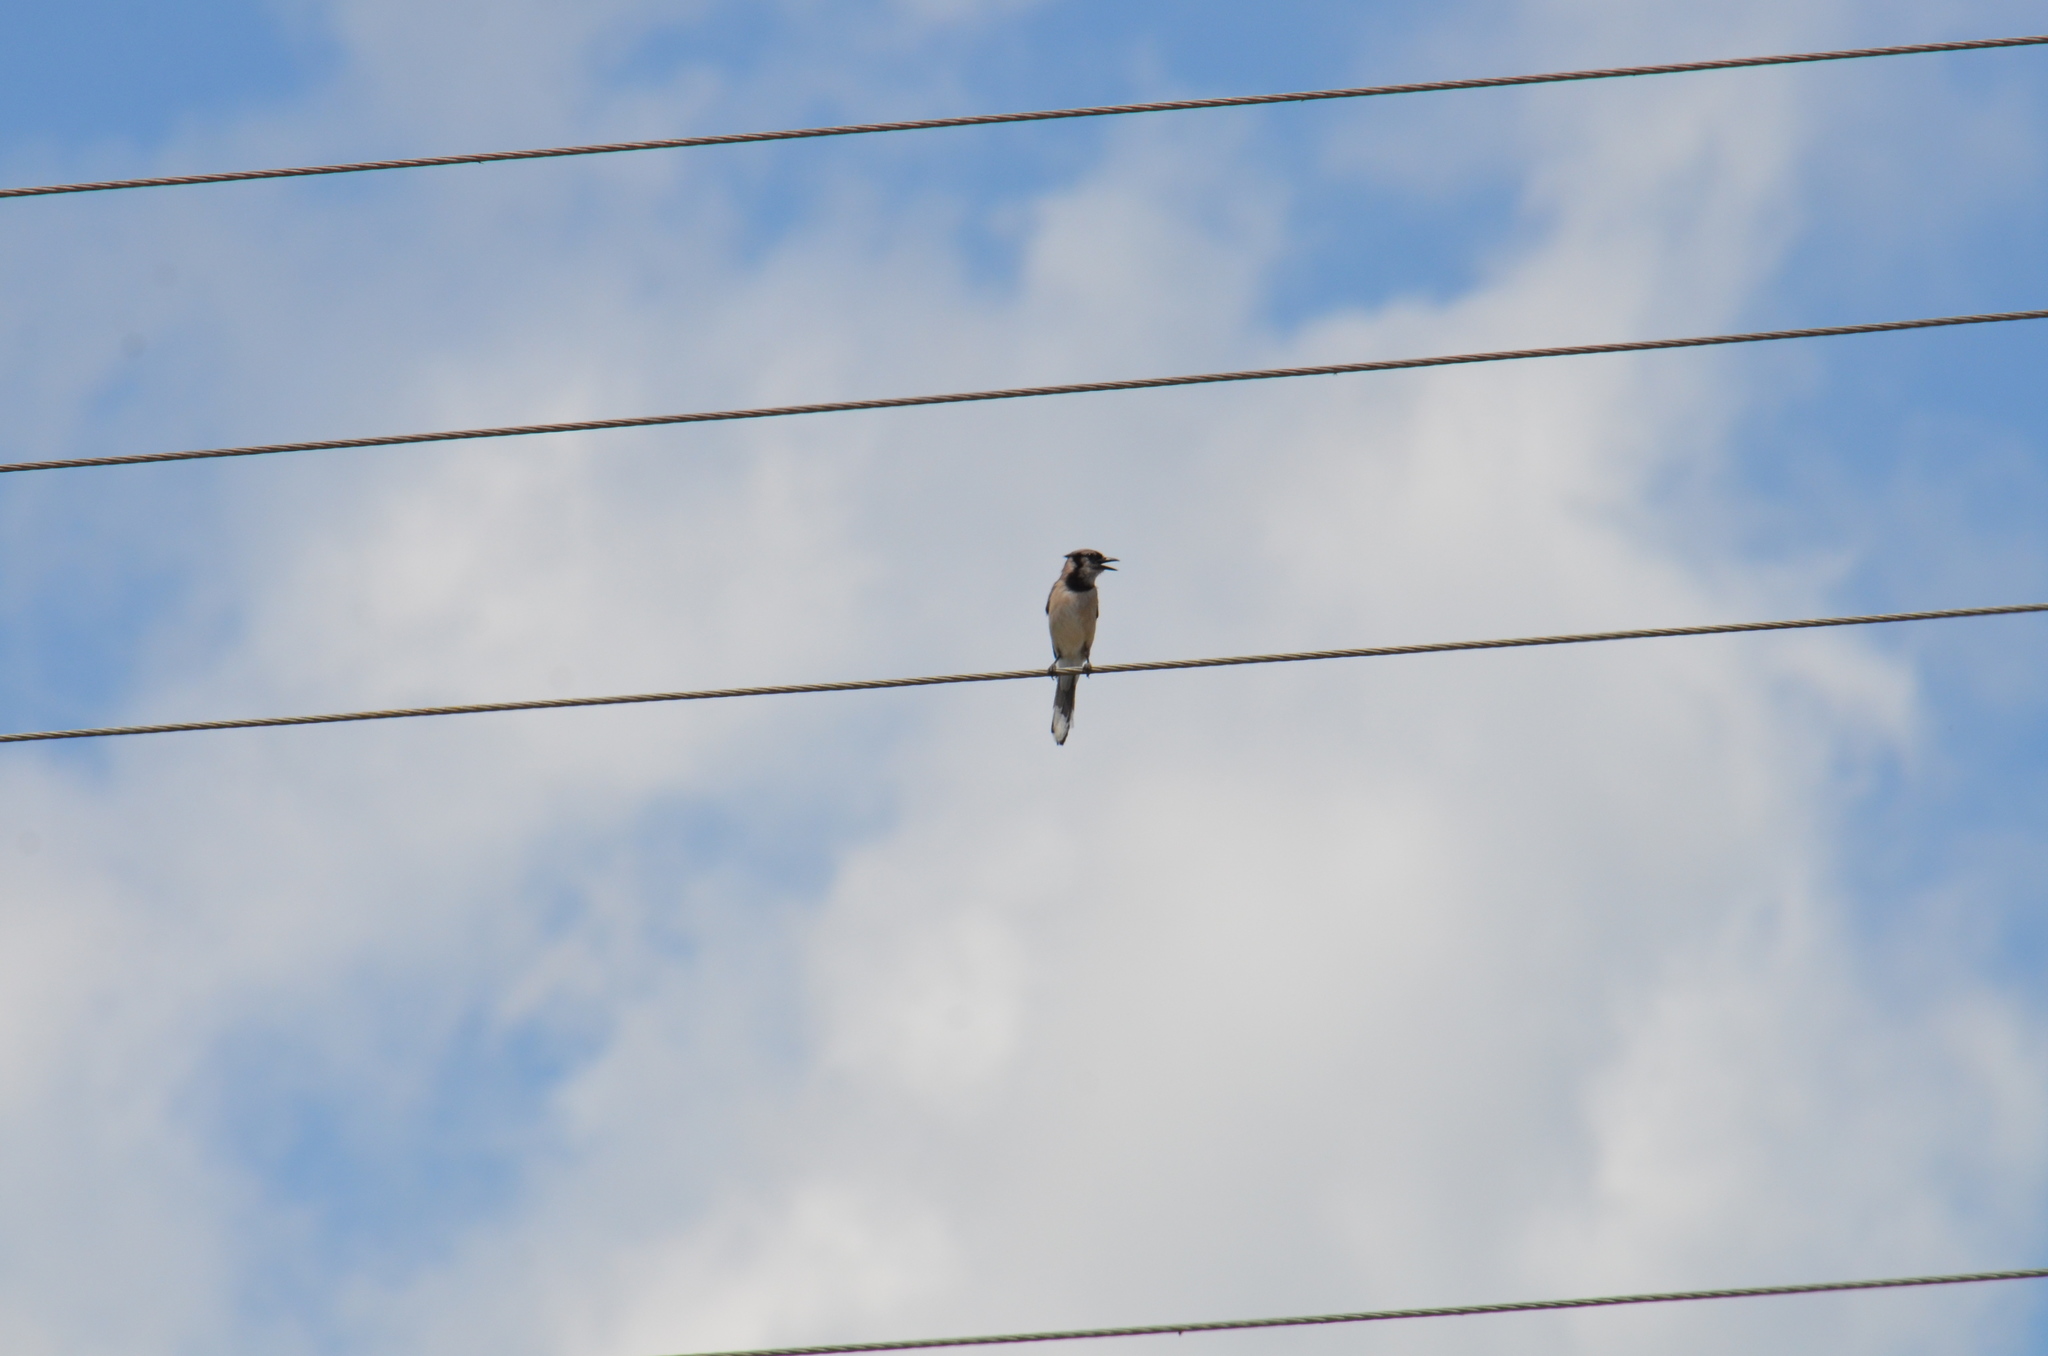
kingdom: Animalia
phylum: Chordata
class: Aves
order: Passeriformes
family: Corvidae
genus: Cyanocitta
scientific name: Cyanocitta cristata
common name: Blue jay
